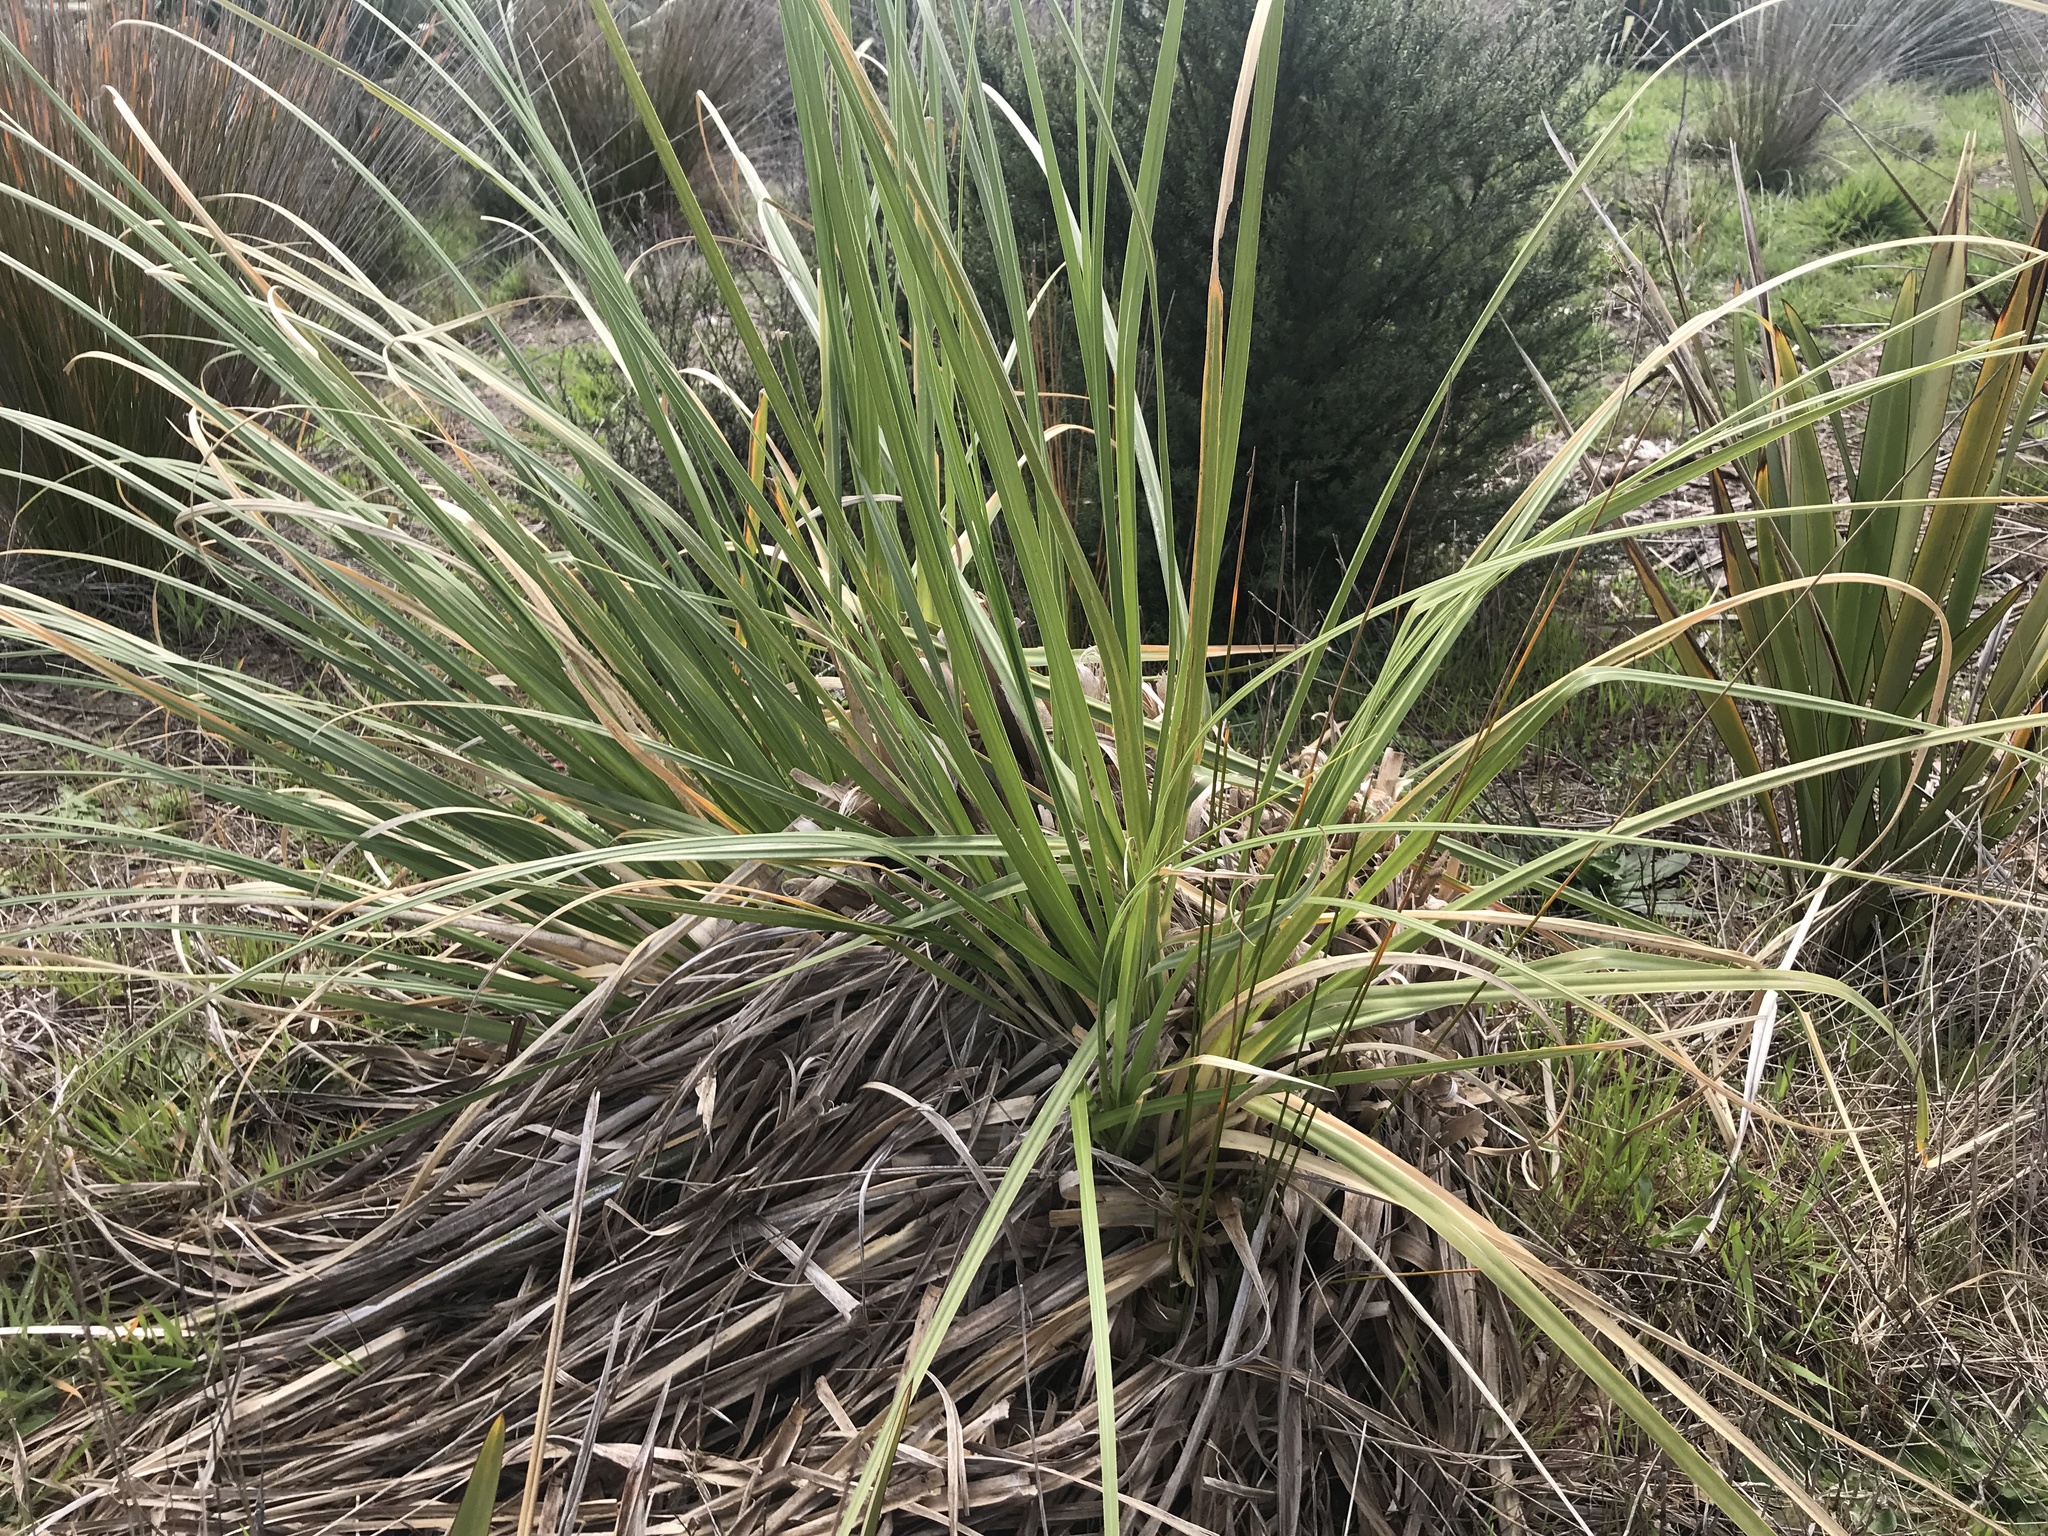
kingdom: Plantae
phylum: Tracheophyta
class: Liliopsida
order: Poales
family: Poaceae
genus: Cortaderia
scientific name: Cortaderia selloana
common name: Uruguayan pampas grass
